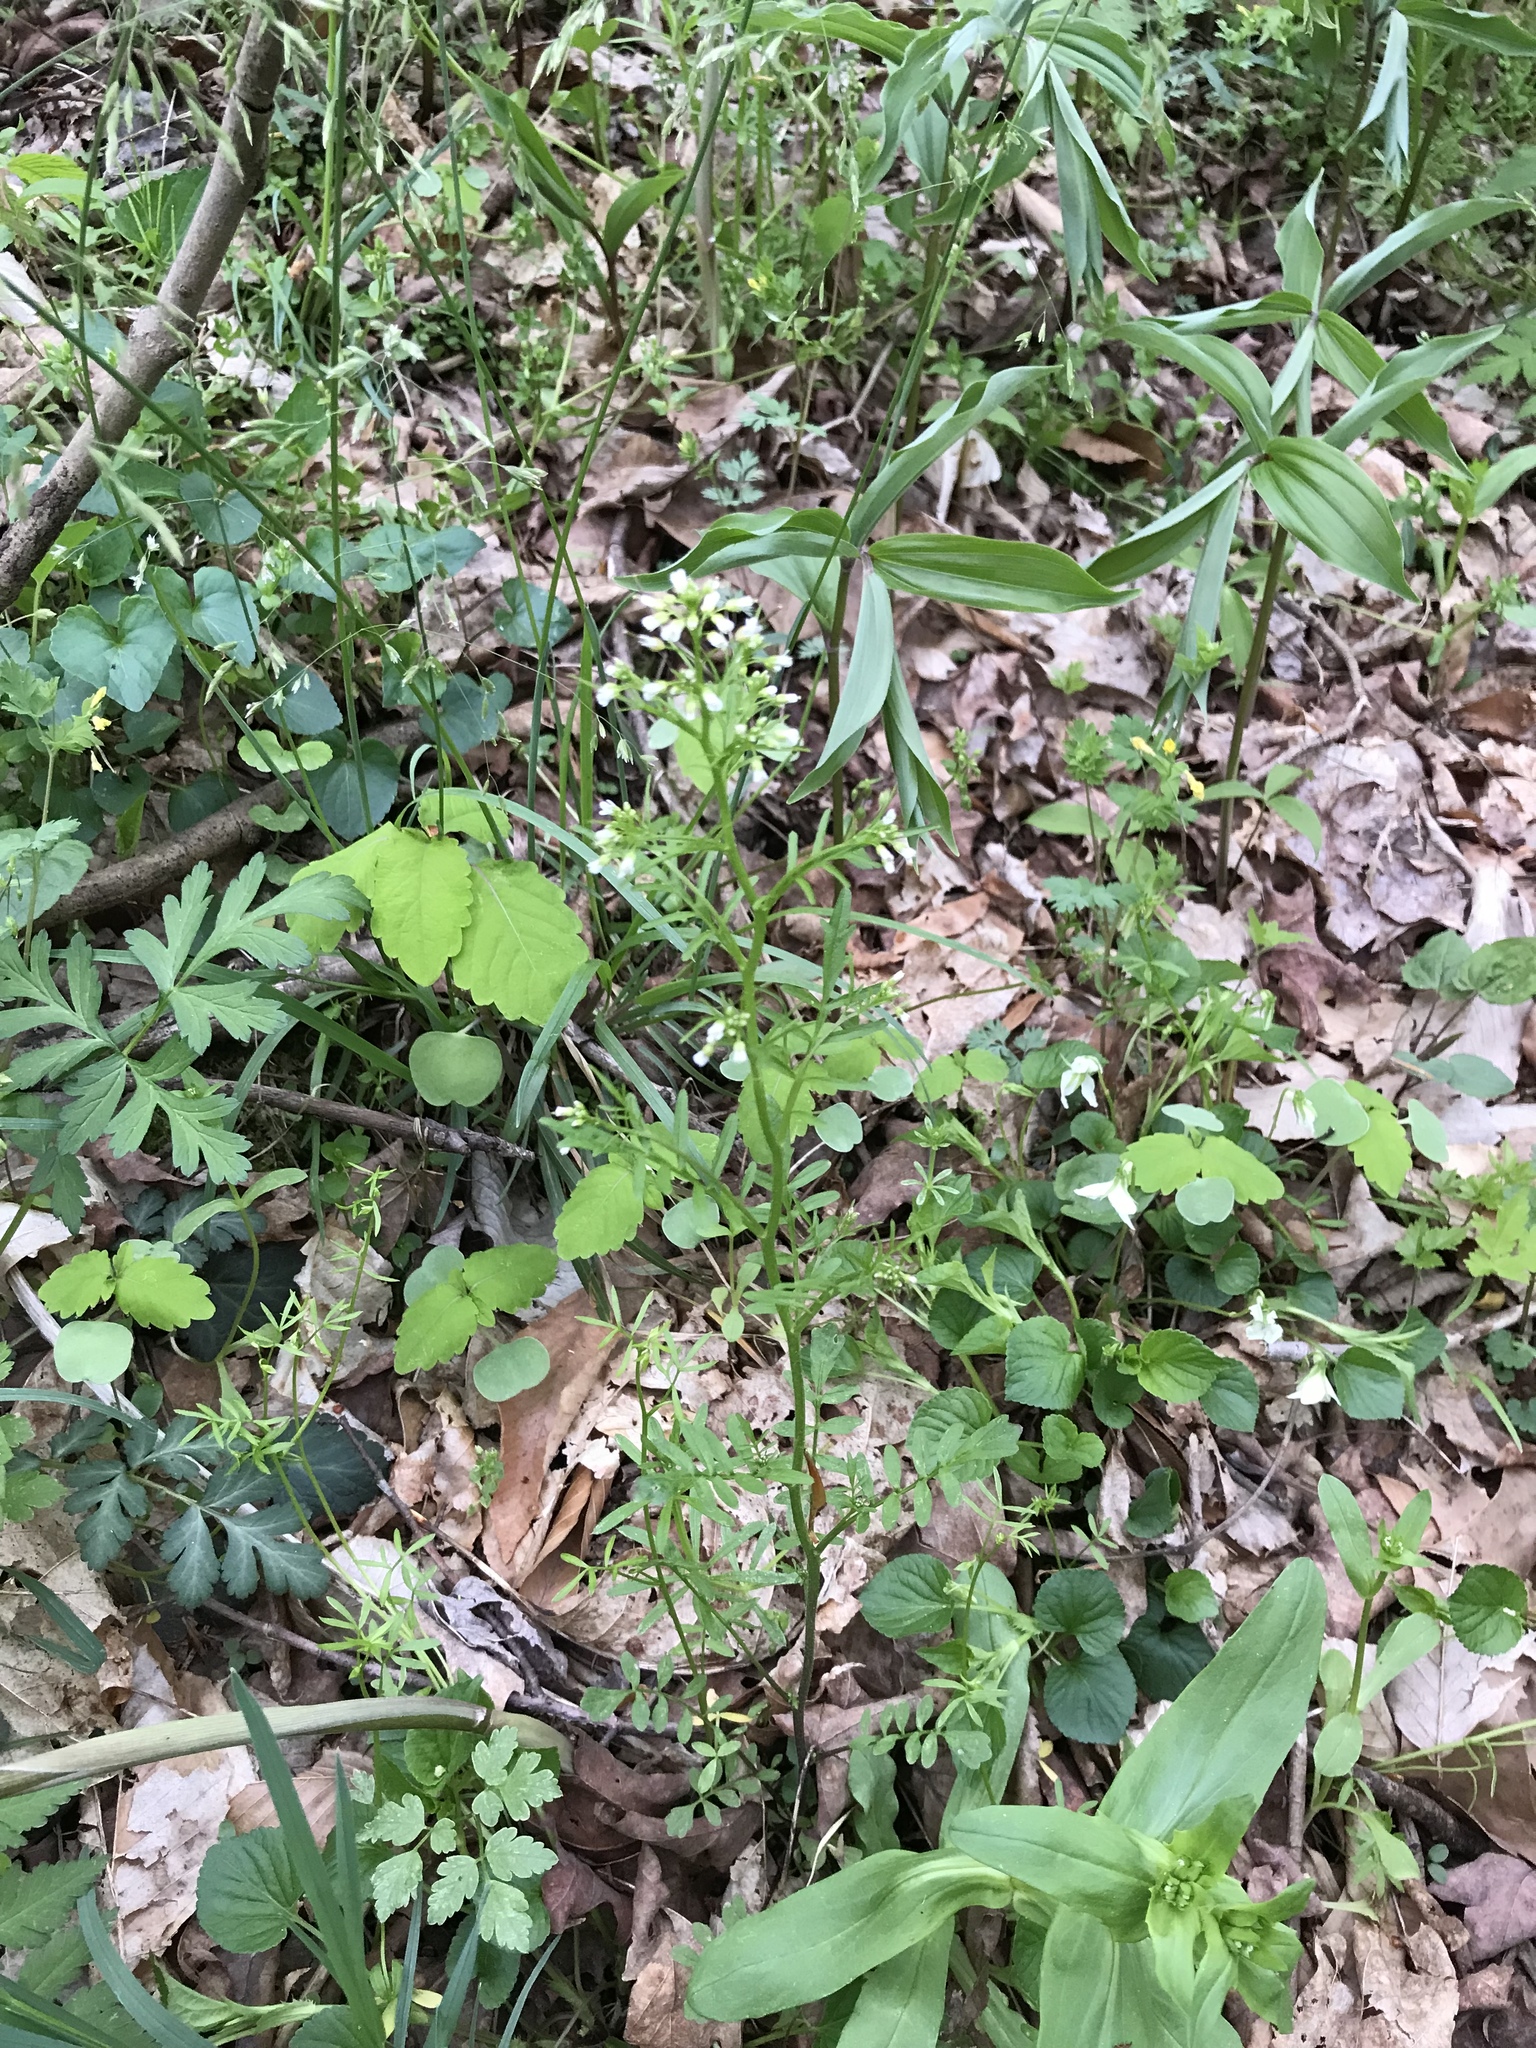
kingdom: Plantae
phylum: Tracheophyta
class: Magnoliopsida
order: Brassicales
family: Brassicaceae
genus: Cardamine
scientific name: Cardamine pensylvanica
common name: Pennsylvania bittercress
